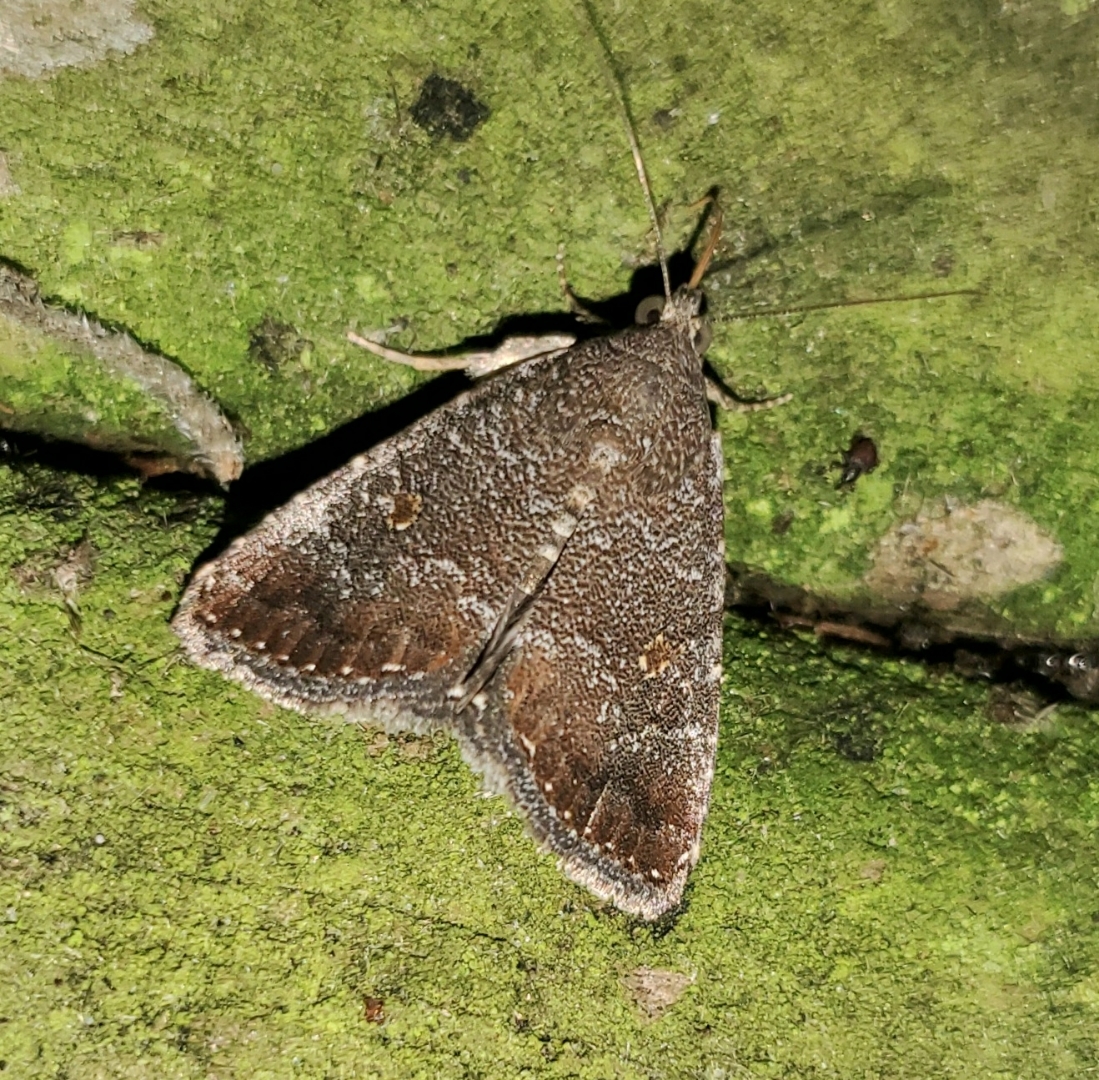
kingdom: Animalia
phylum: Arthropoda
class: Insecta
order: Lepidoptera
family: Noctuidae
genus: Amyna
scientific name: Amyna stricta
